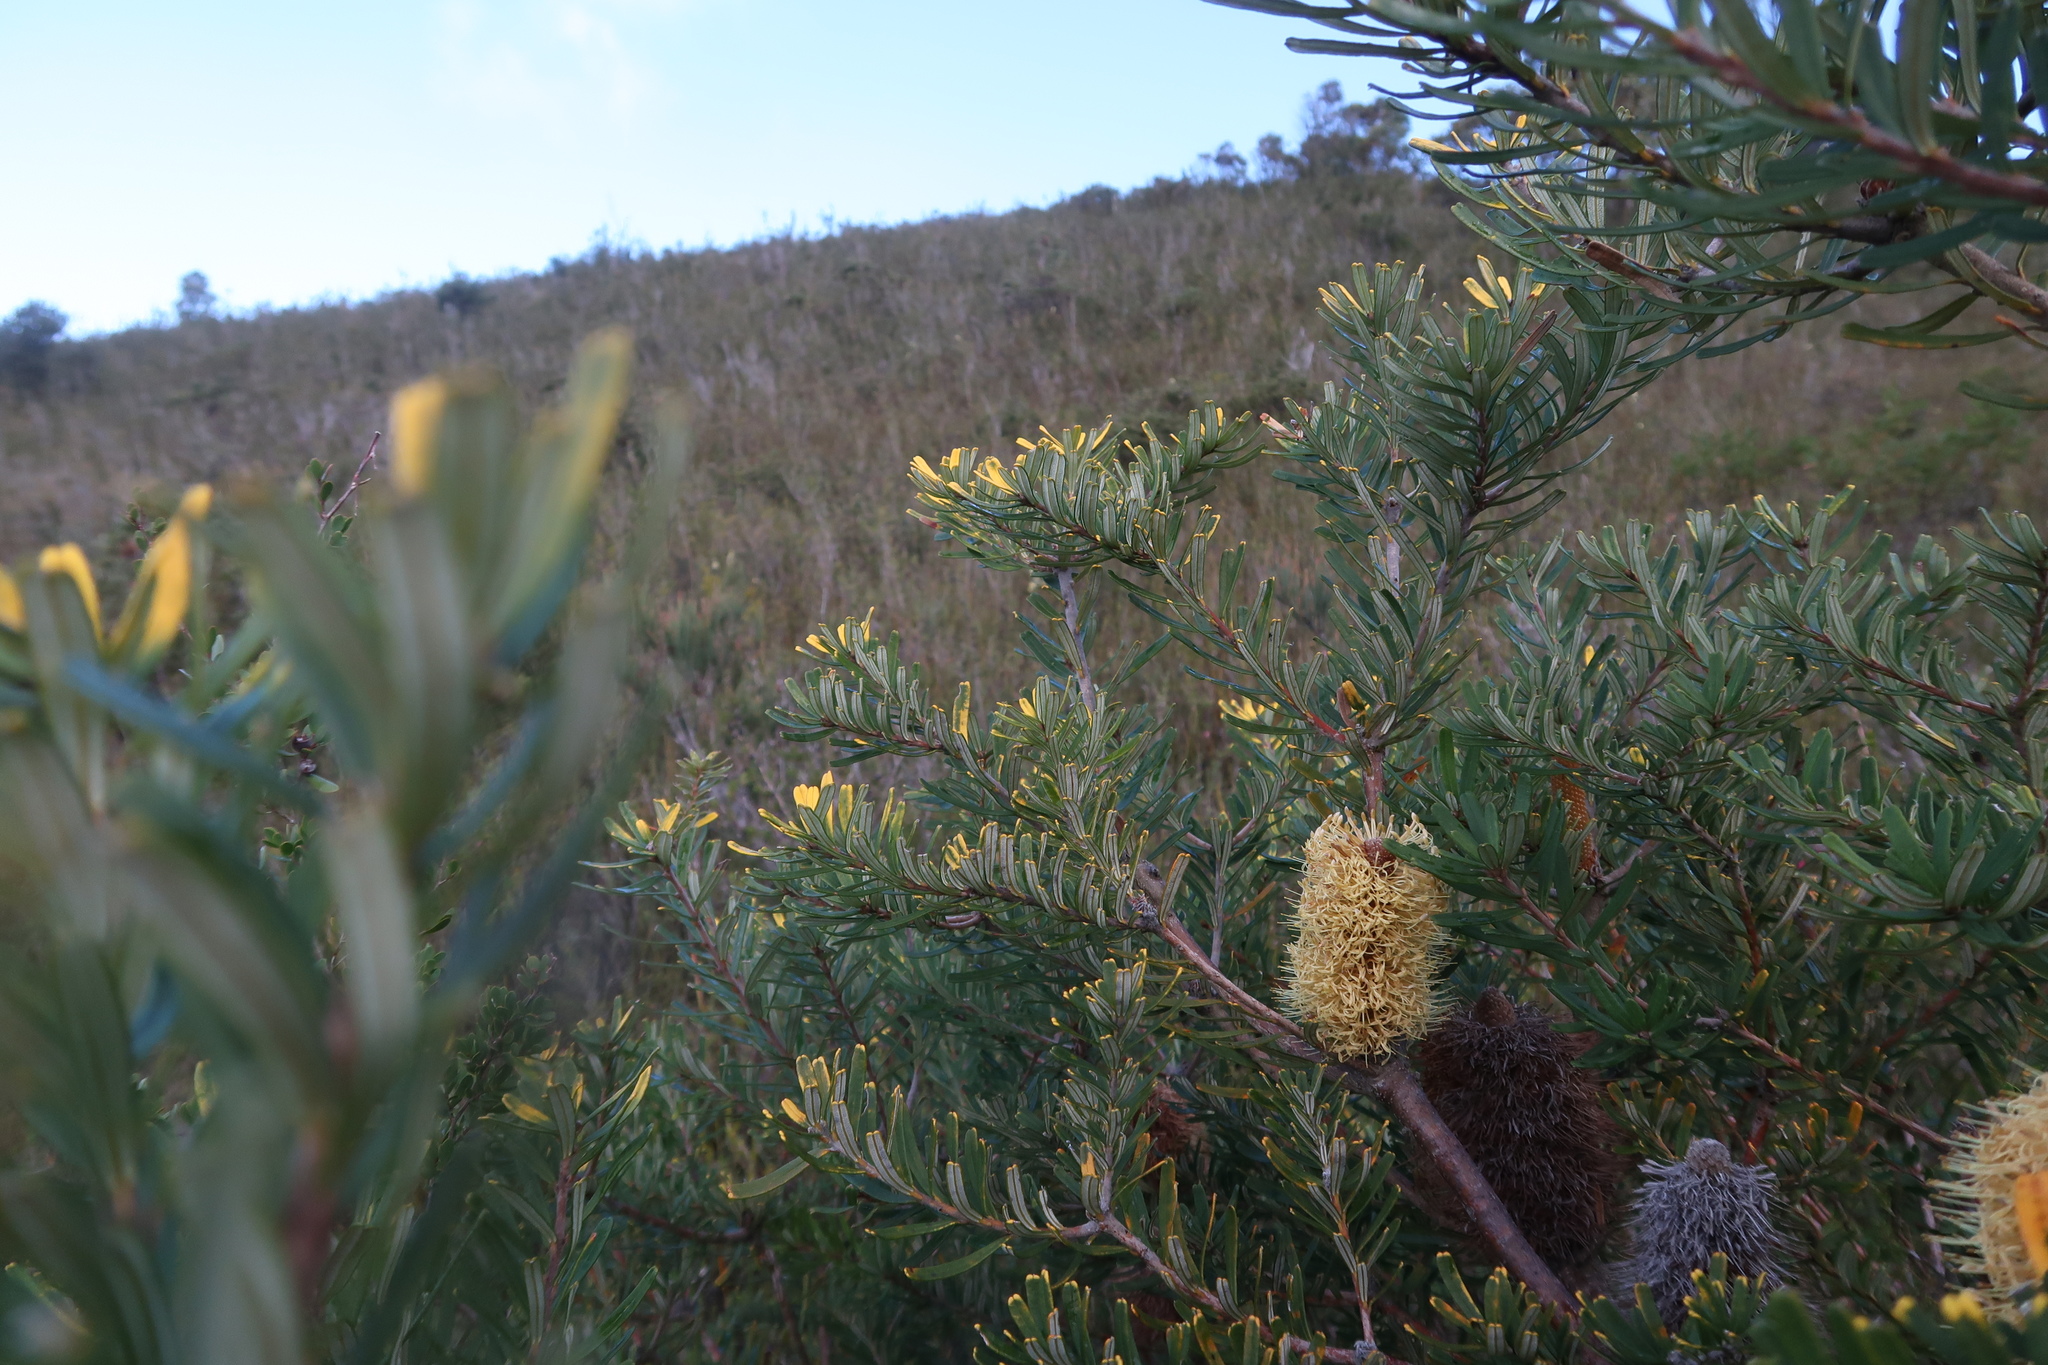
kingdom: Plantae
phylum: Tracheophyta
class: Magnoliopsida
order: Proteales
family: Proteaceae
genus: Banksia
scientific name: Banksia marginata
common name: Silver banksia
